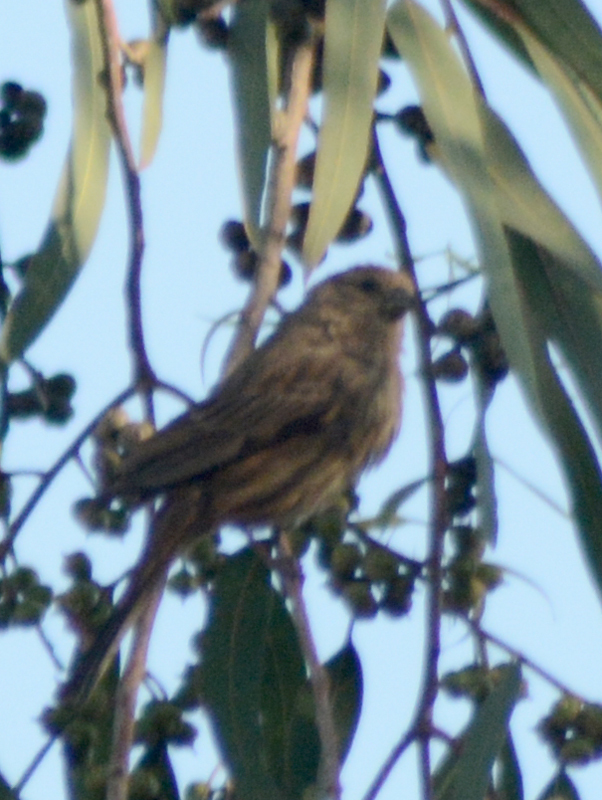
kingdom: Animalia
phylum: Chordata
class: Aves
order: Passeriformes
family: Fringillidae
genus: Haemorhous
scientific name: Haemorhous mexicanus
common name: House finch
